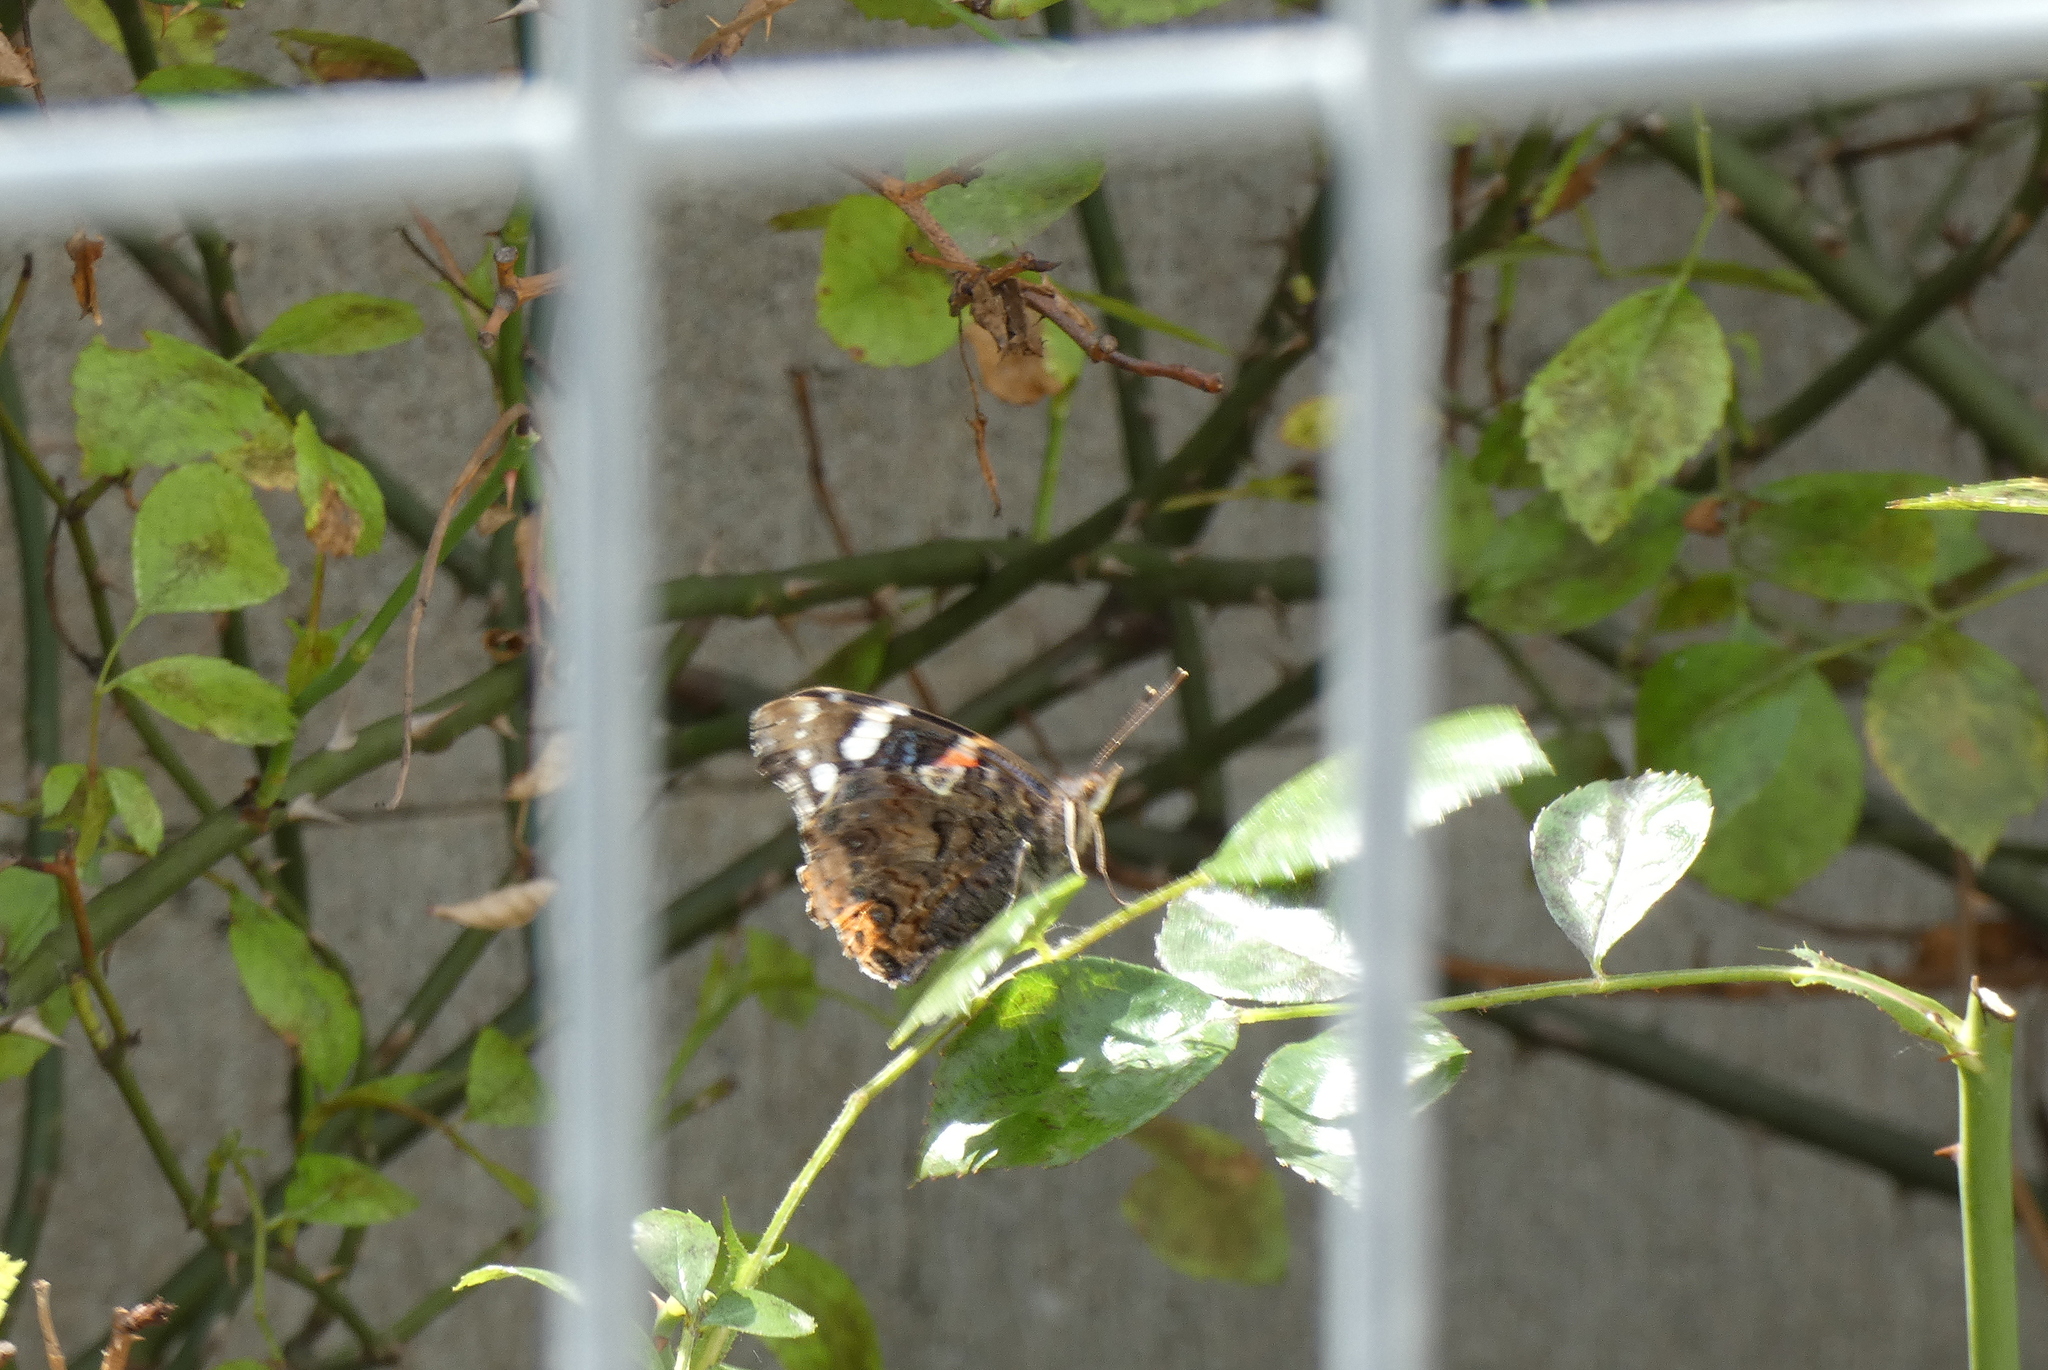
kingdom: Animalia
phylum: Arthropoda
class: Insecta
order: Lepidoptera
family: Nymphalidae
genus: Vanessa
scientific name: Vanessa atalanta
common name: Red admiral
